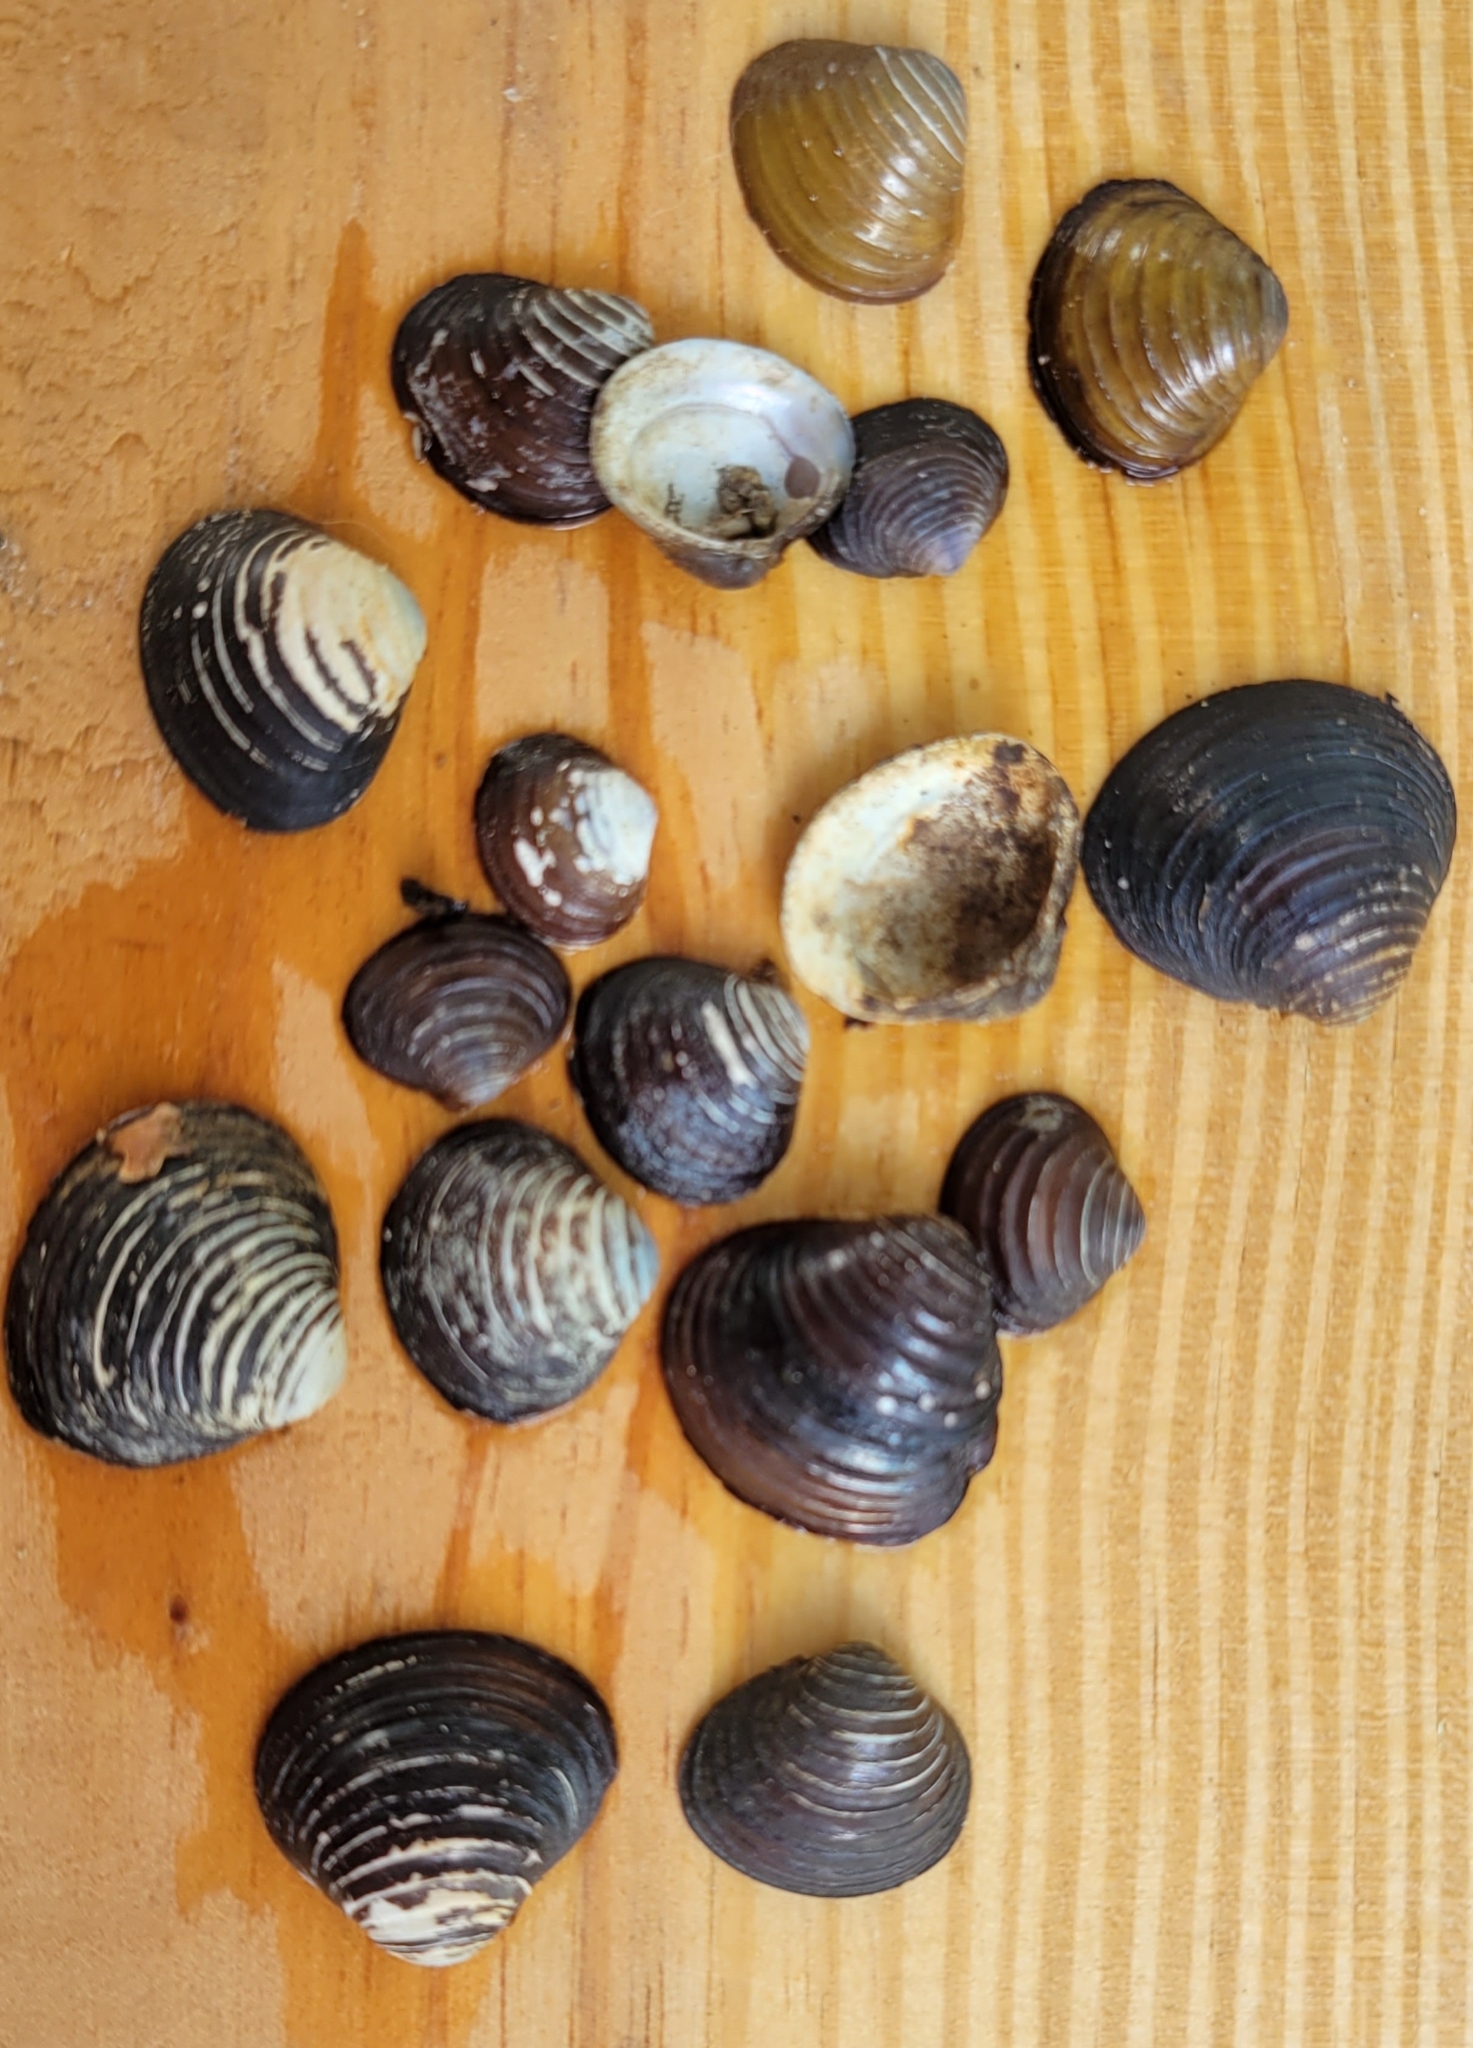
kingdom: Animalia
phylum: Mollusca
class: Bivalvia
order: Venerida
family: Cyrenidae
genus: Corbicula
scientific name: Corbicula fluminea
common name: Asian clam
